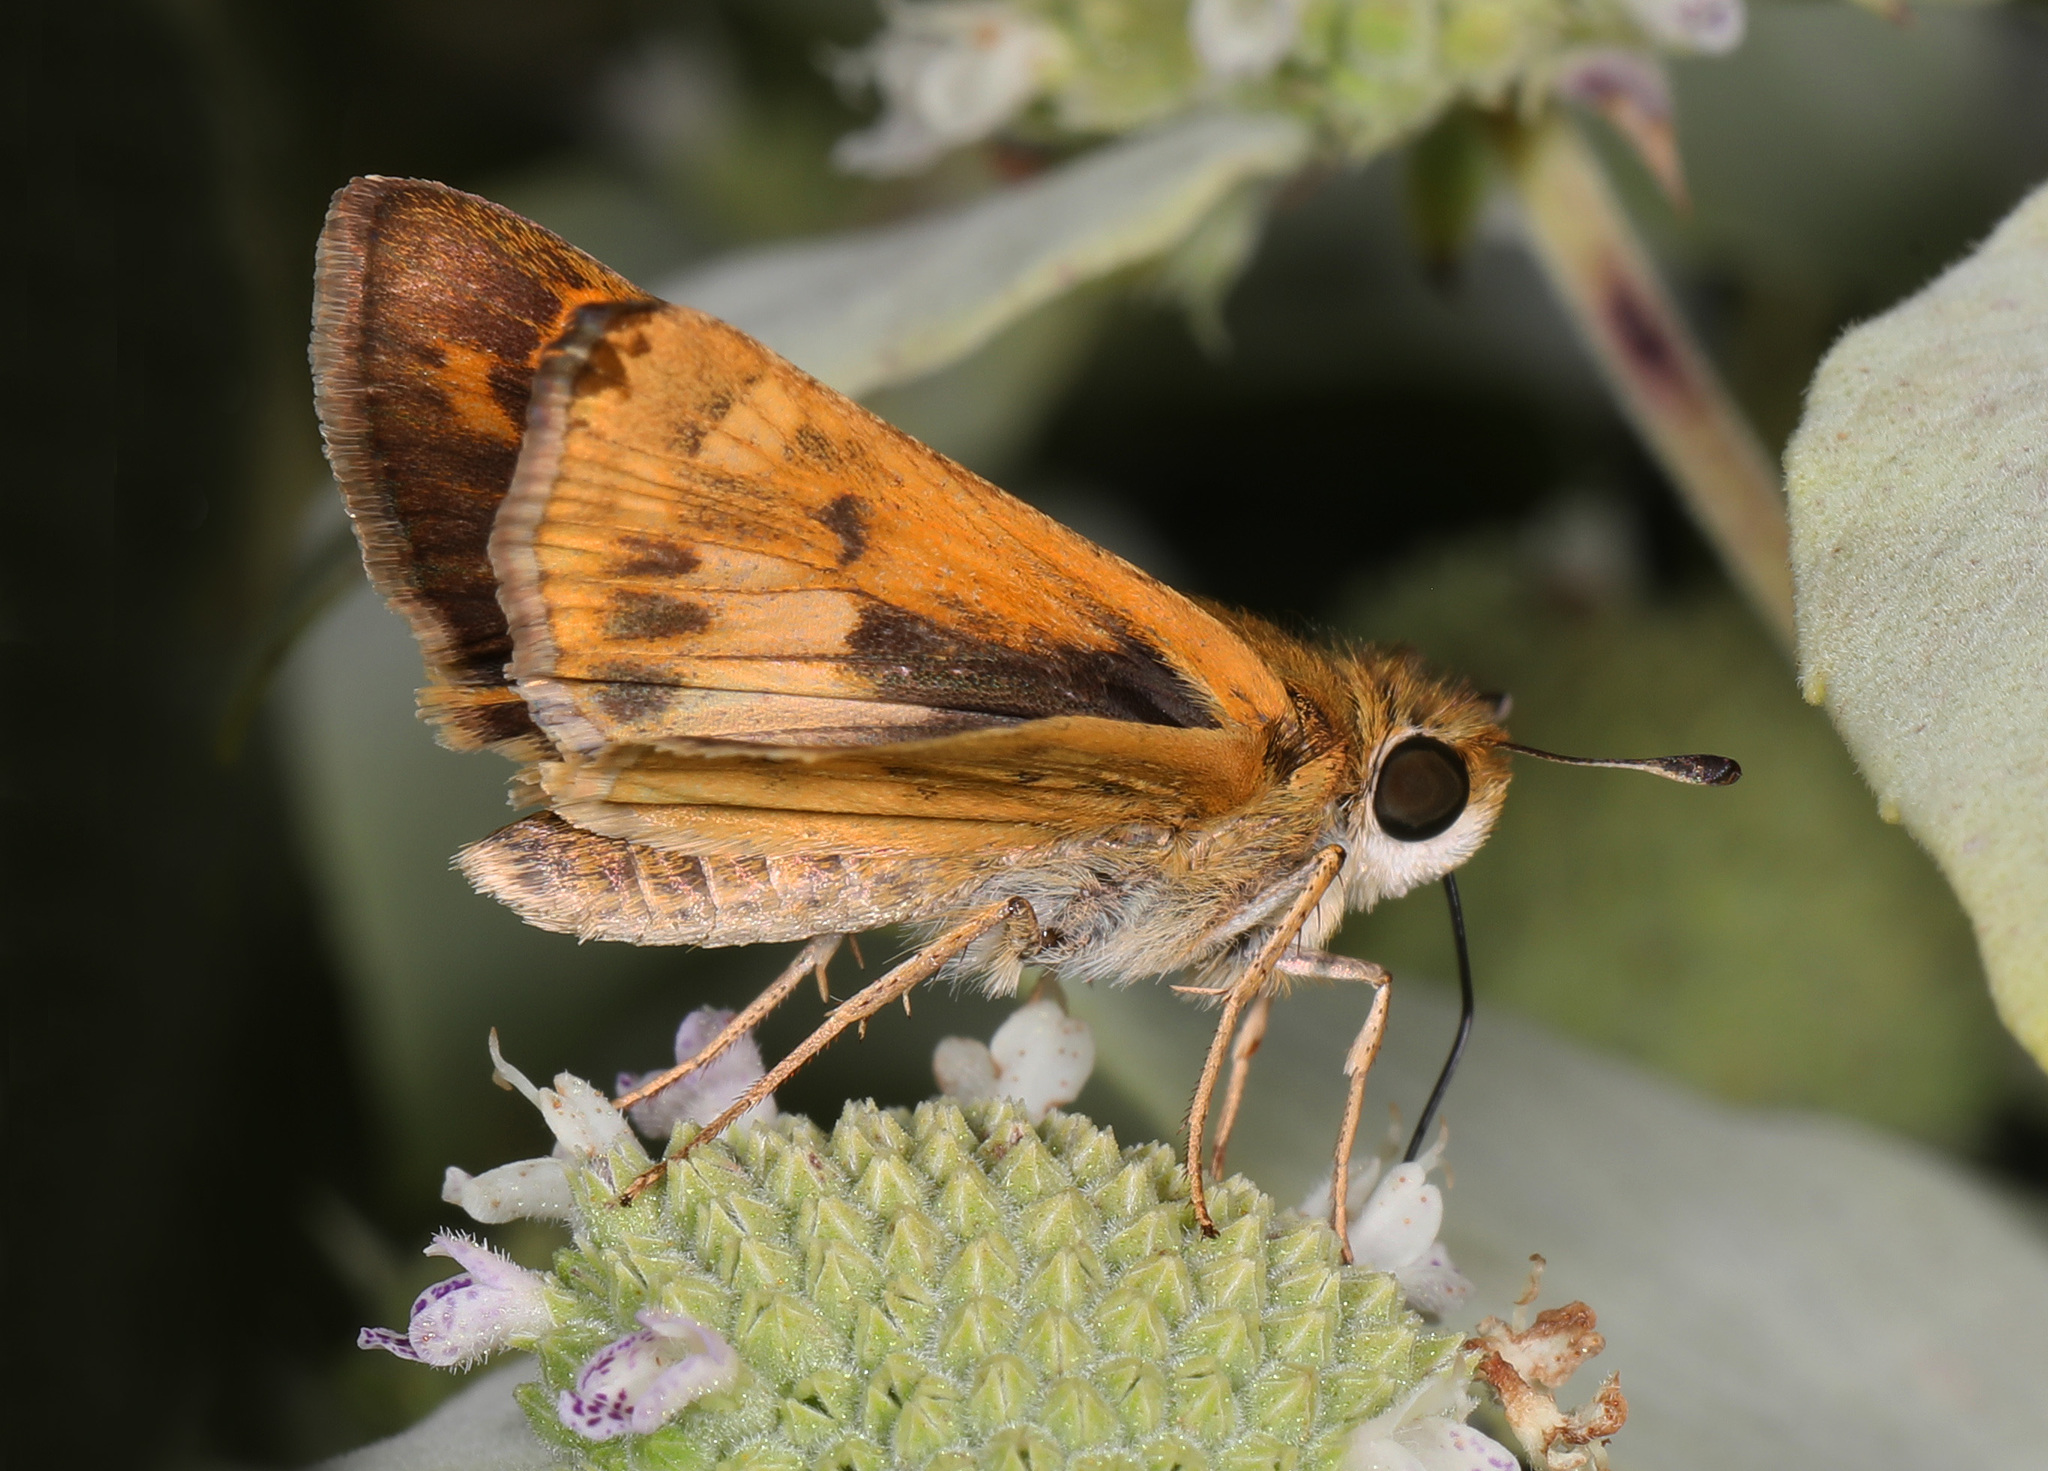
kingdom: Animalia
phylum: Arthropoda
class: Insecta
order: Lepidoptera
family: Hesperiidae
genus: Hylephila
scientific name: Hylephila phyleus
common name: Fiery skipper
